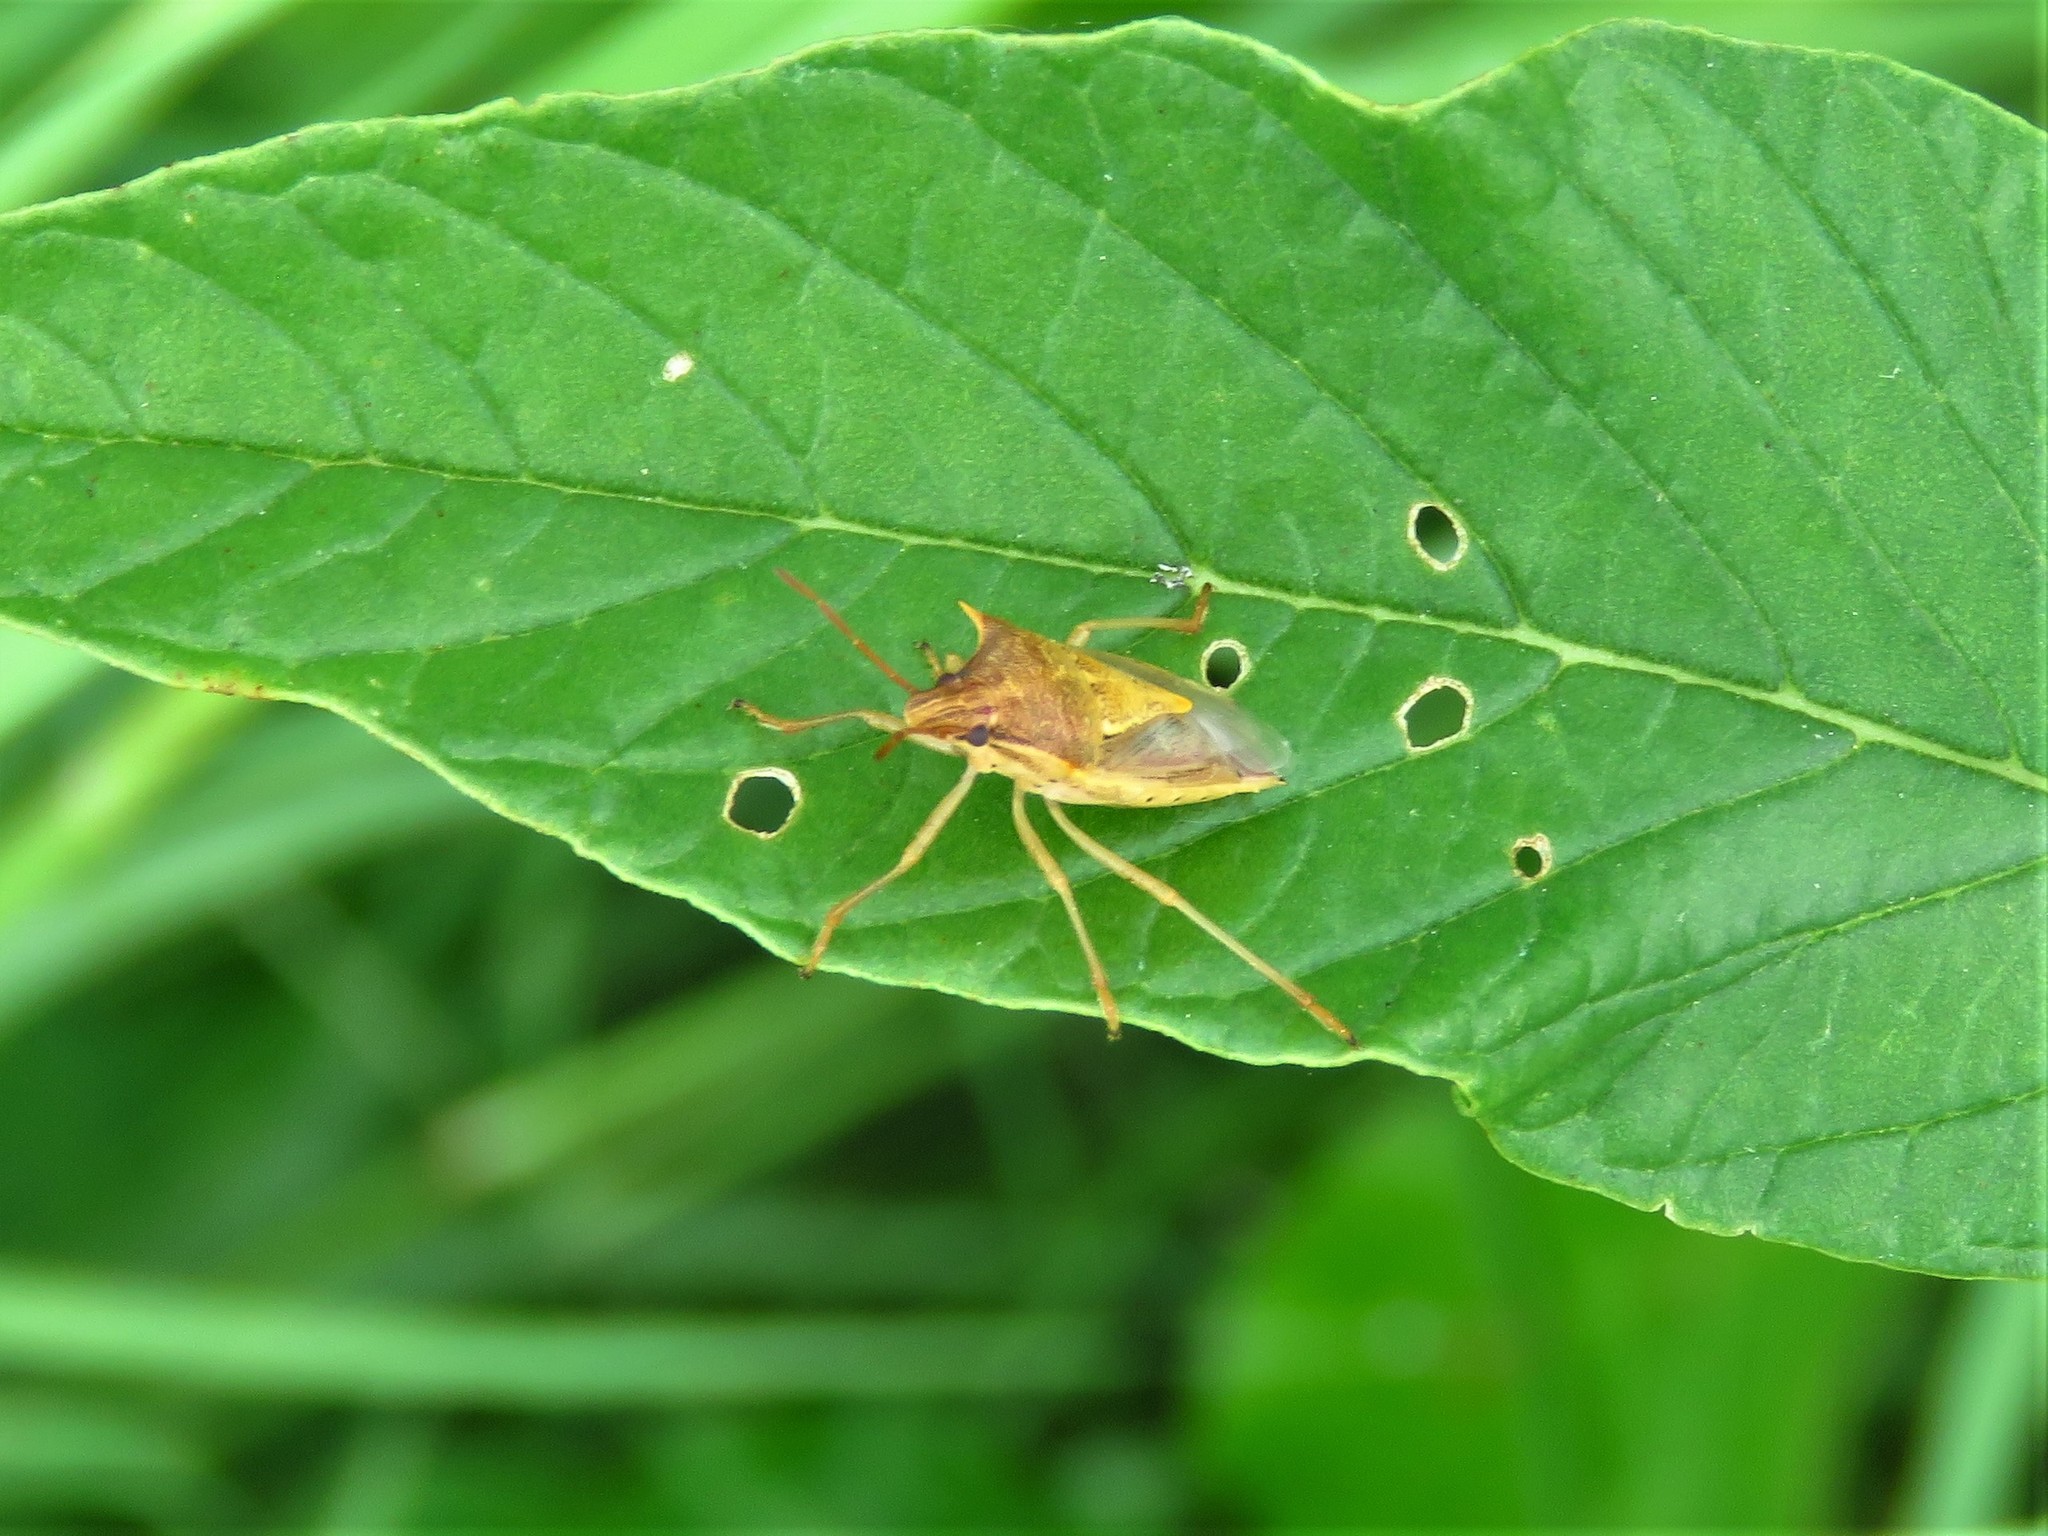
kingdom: Animalia
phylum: Arthropoda
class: Insecta
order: Hemiptera
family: Pentatomidae
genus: Oebalus
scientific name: Oebalus pugnax
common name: Rice stink bug
